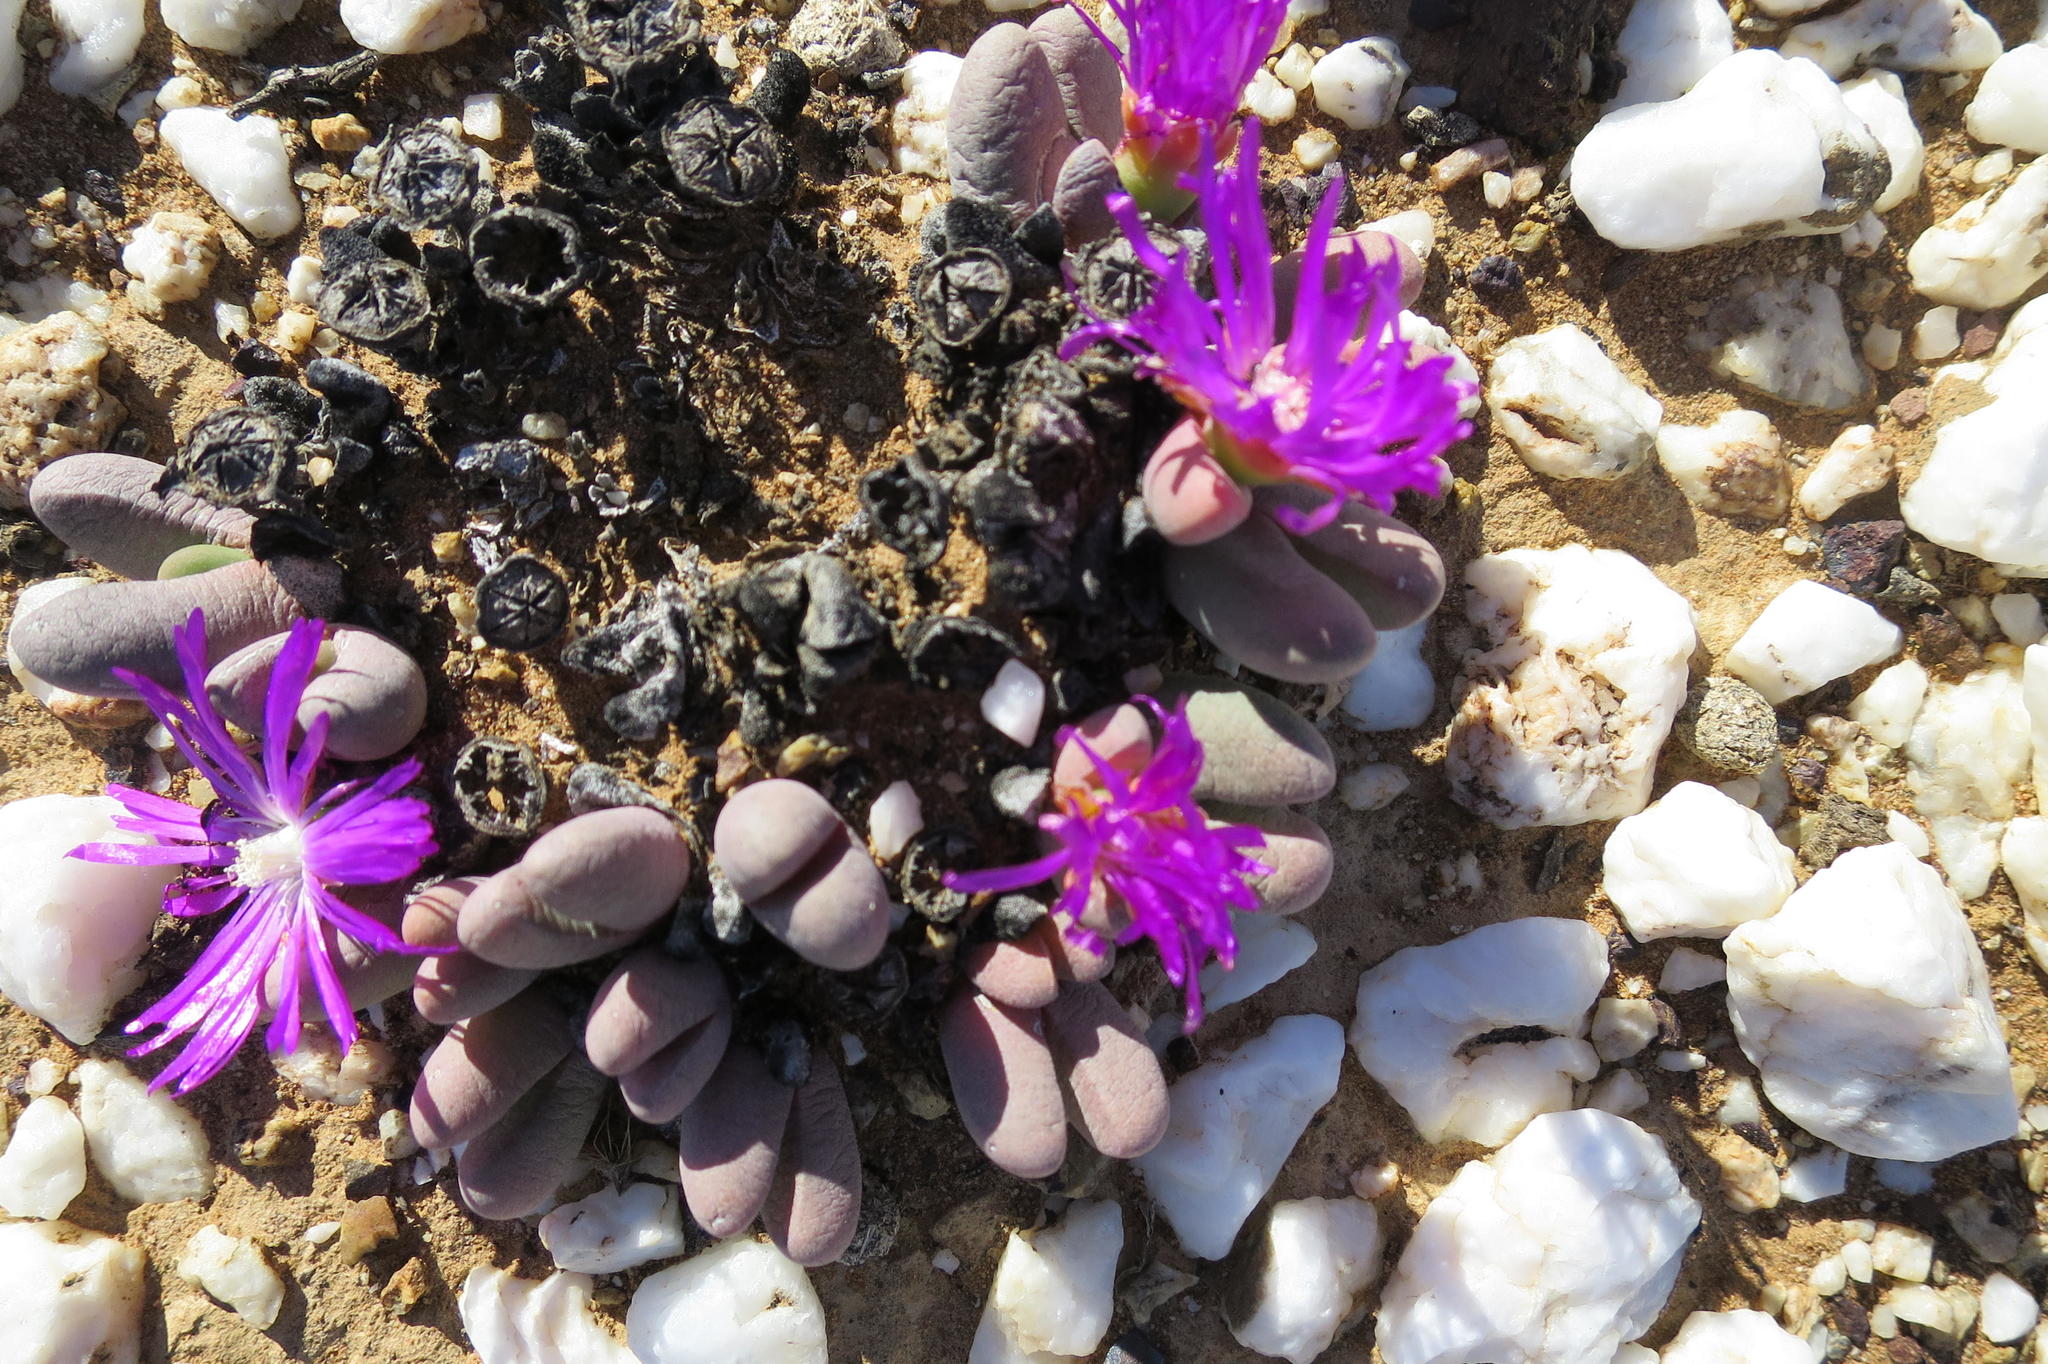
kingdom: Plantae
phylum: Tracheophyta
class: Magnoliopsida
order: Caryophyllales
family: Aizoaceae
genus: Antegibbaeum
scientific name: Antegibbaeum fissoides
